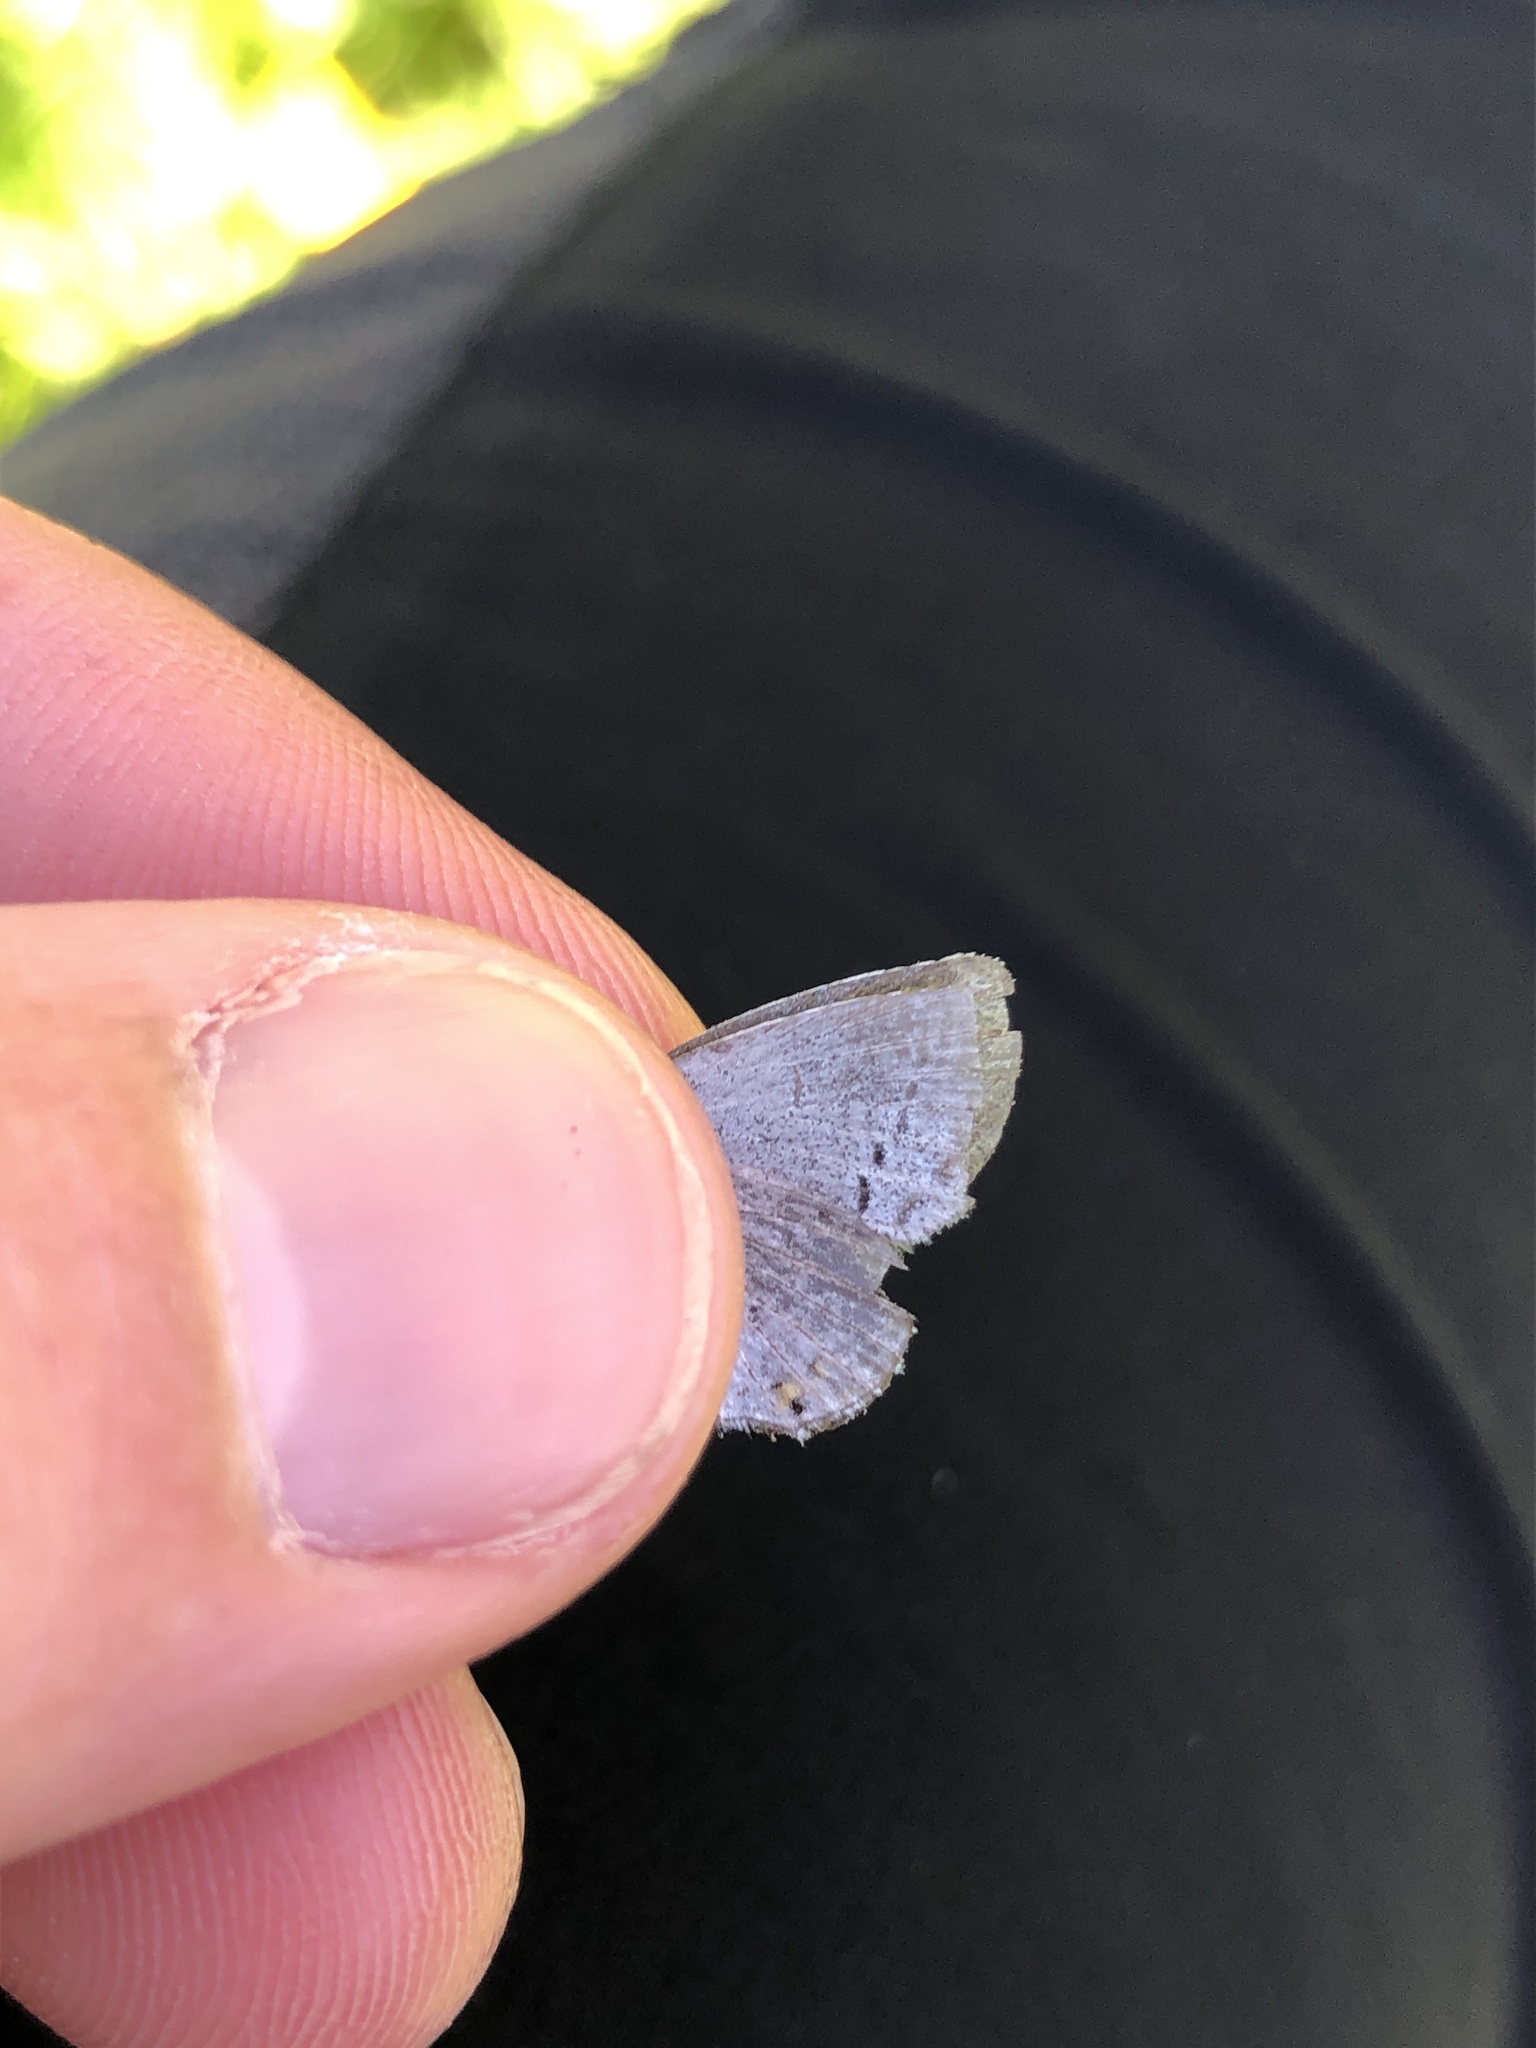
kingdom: Animalia
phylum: Arthropoda
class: Insecta
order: Lepidoptera
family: Lycaenidae
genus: Elkalyce
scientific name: Elkalyce argiades
